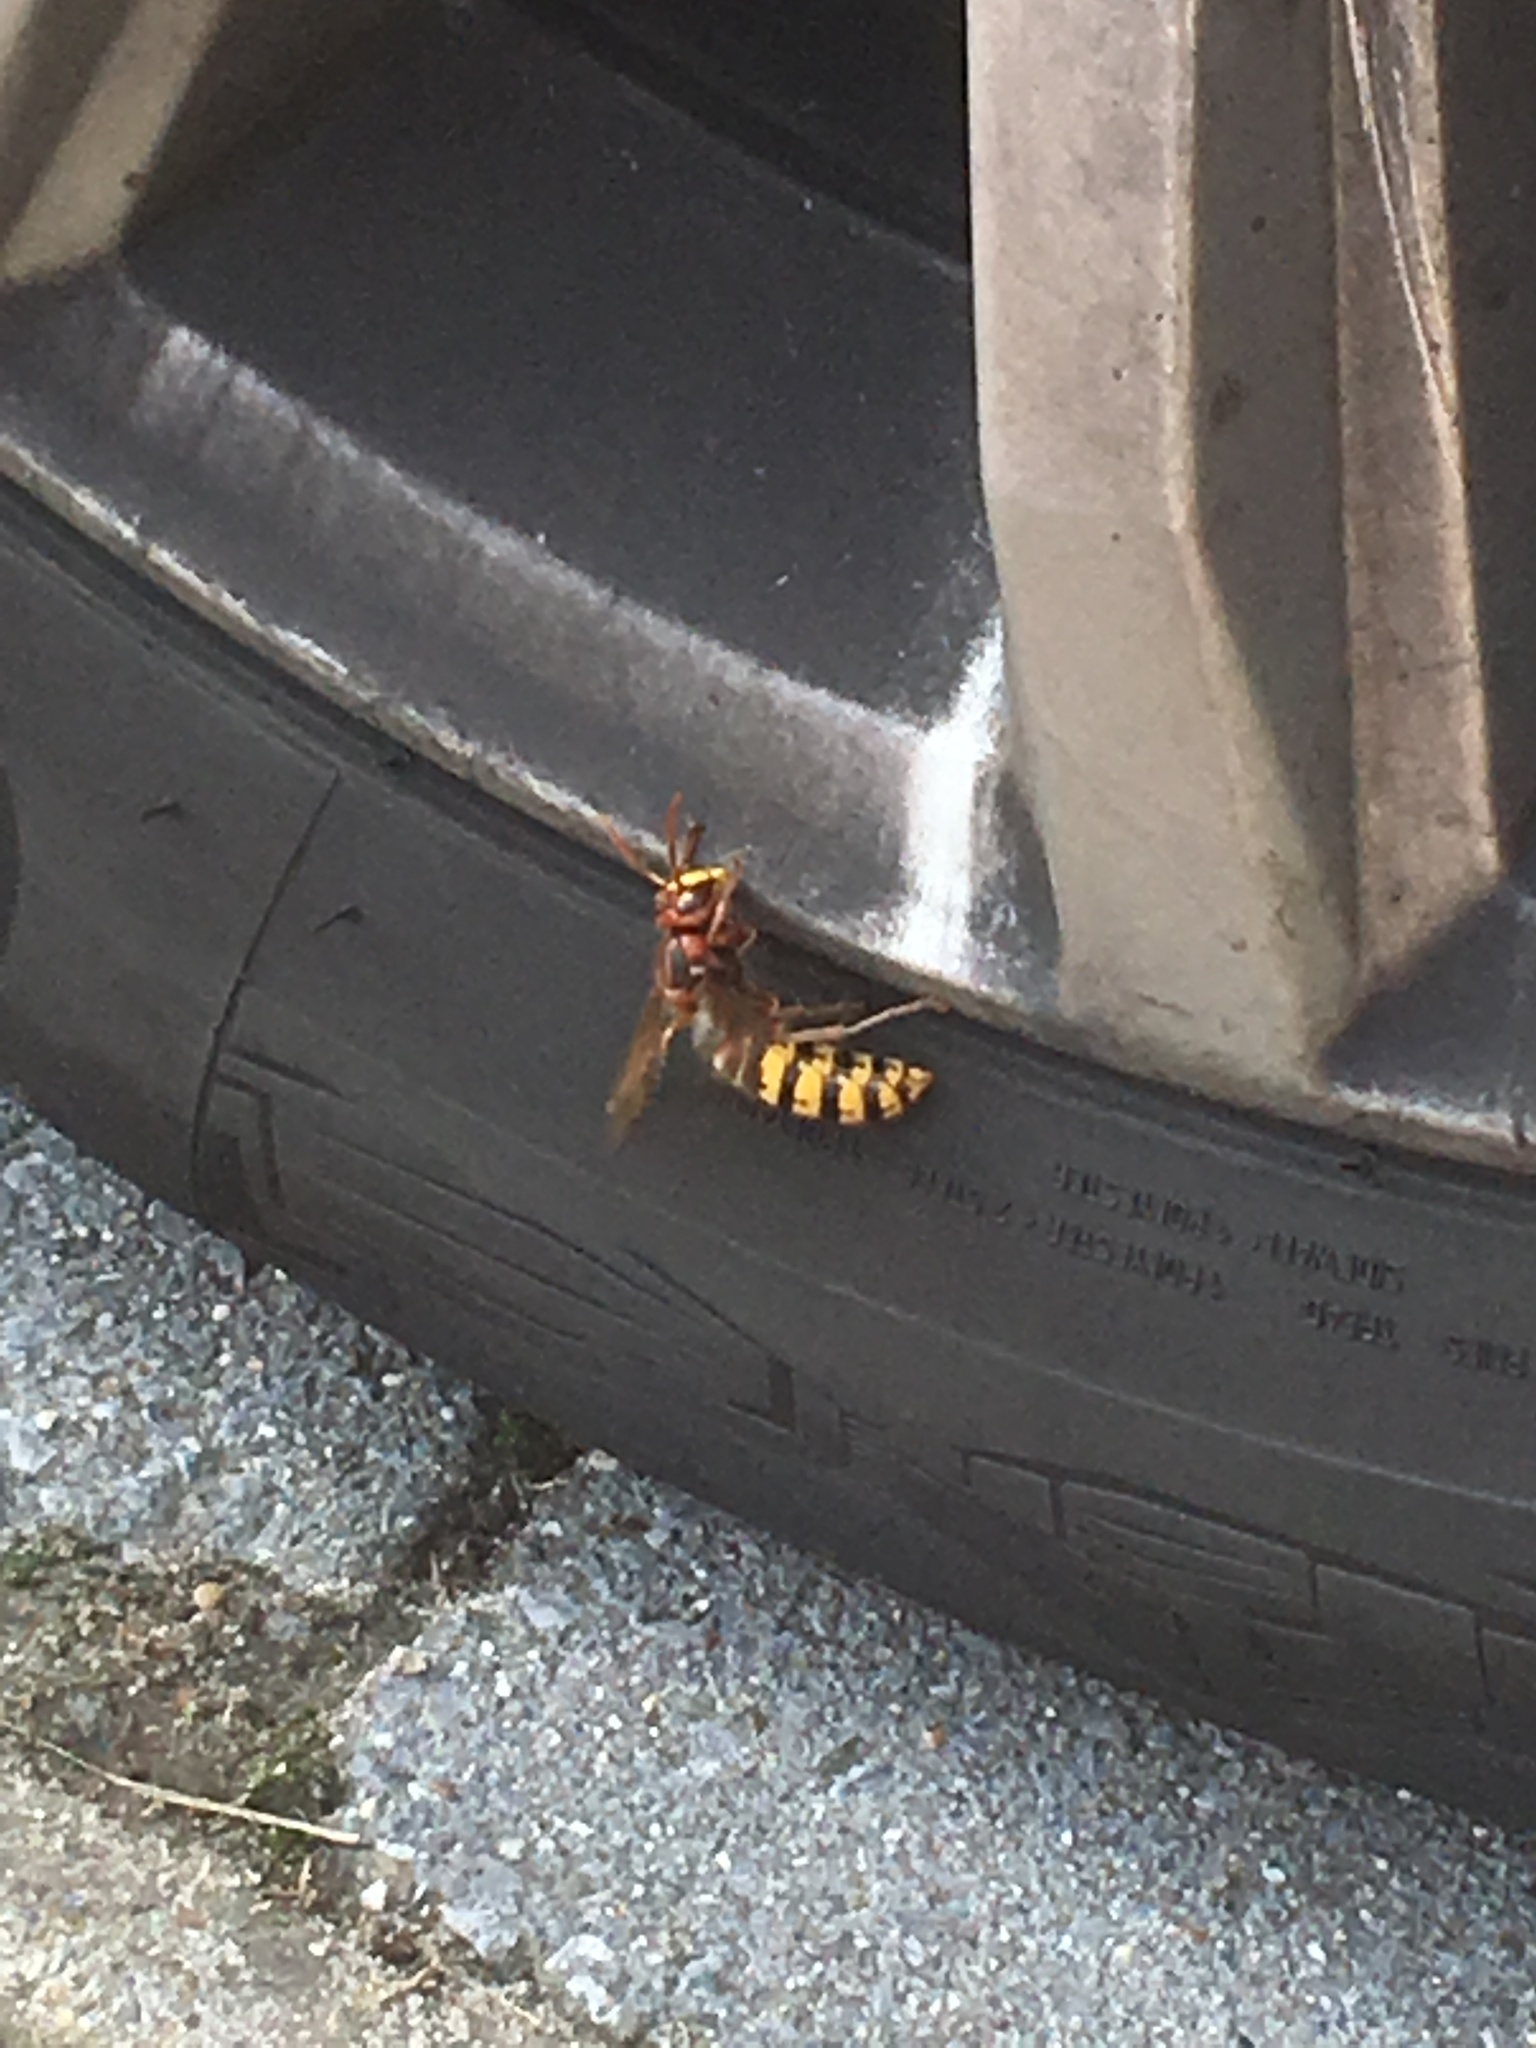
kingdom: Animalia
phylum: Arthropoda
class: Insecta
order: Hymenoptera
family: Vespidae
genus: Vespa
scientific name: Vespa crabro
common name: Hornet
